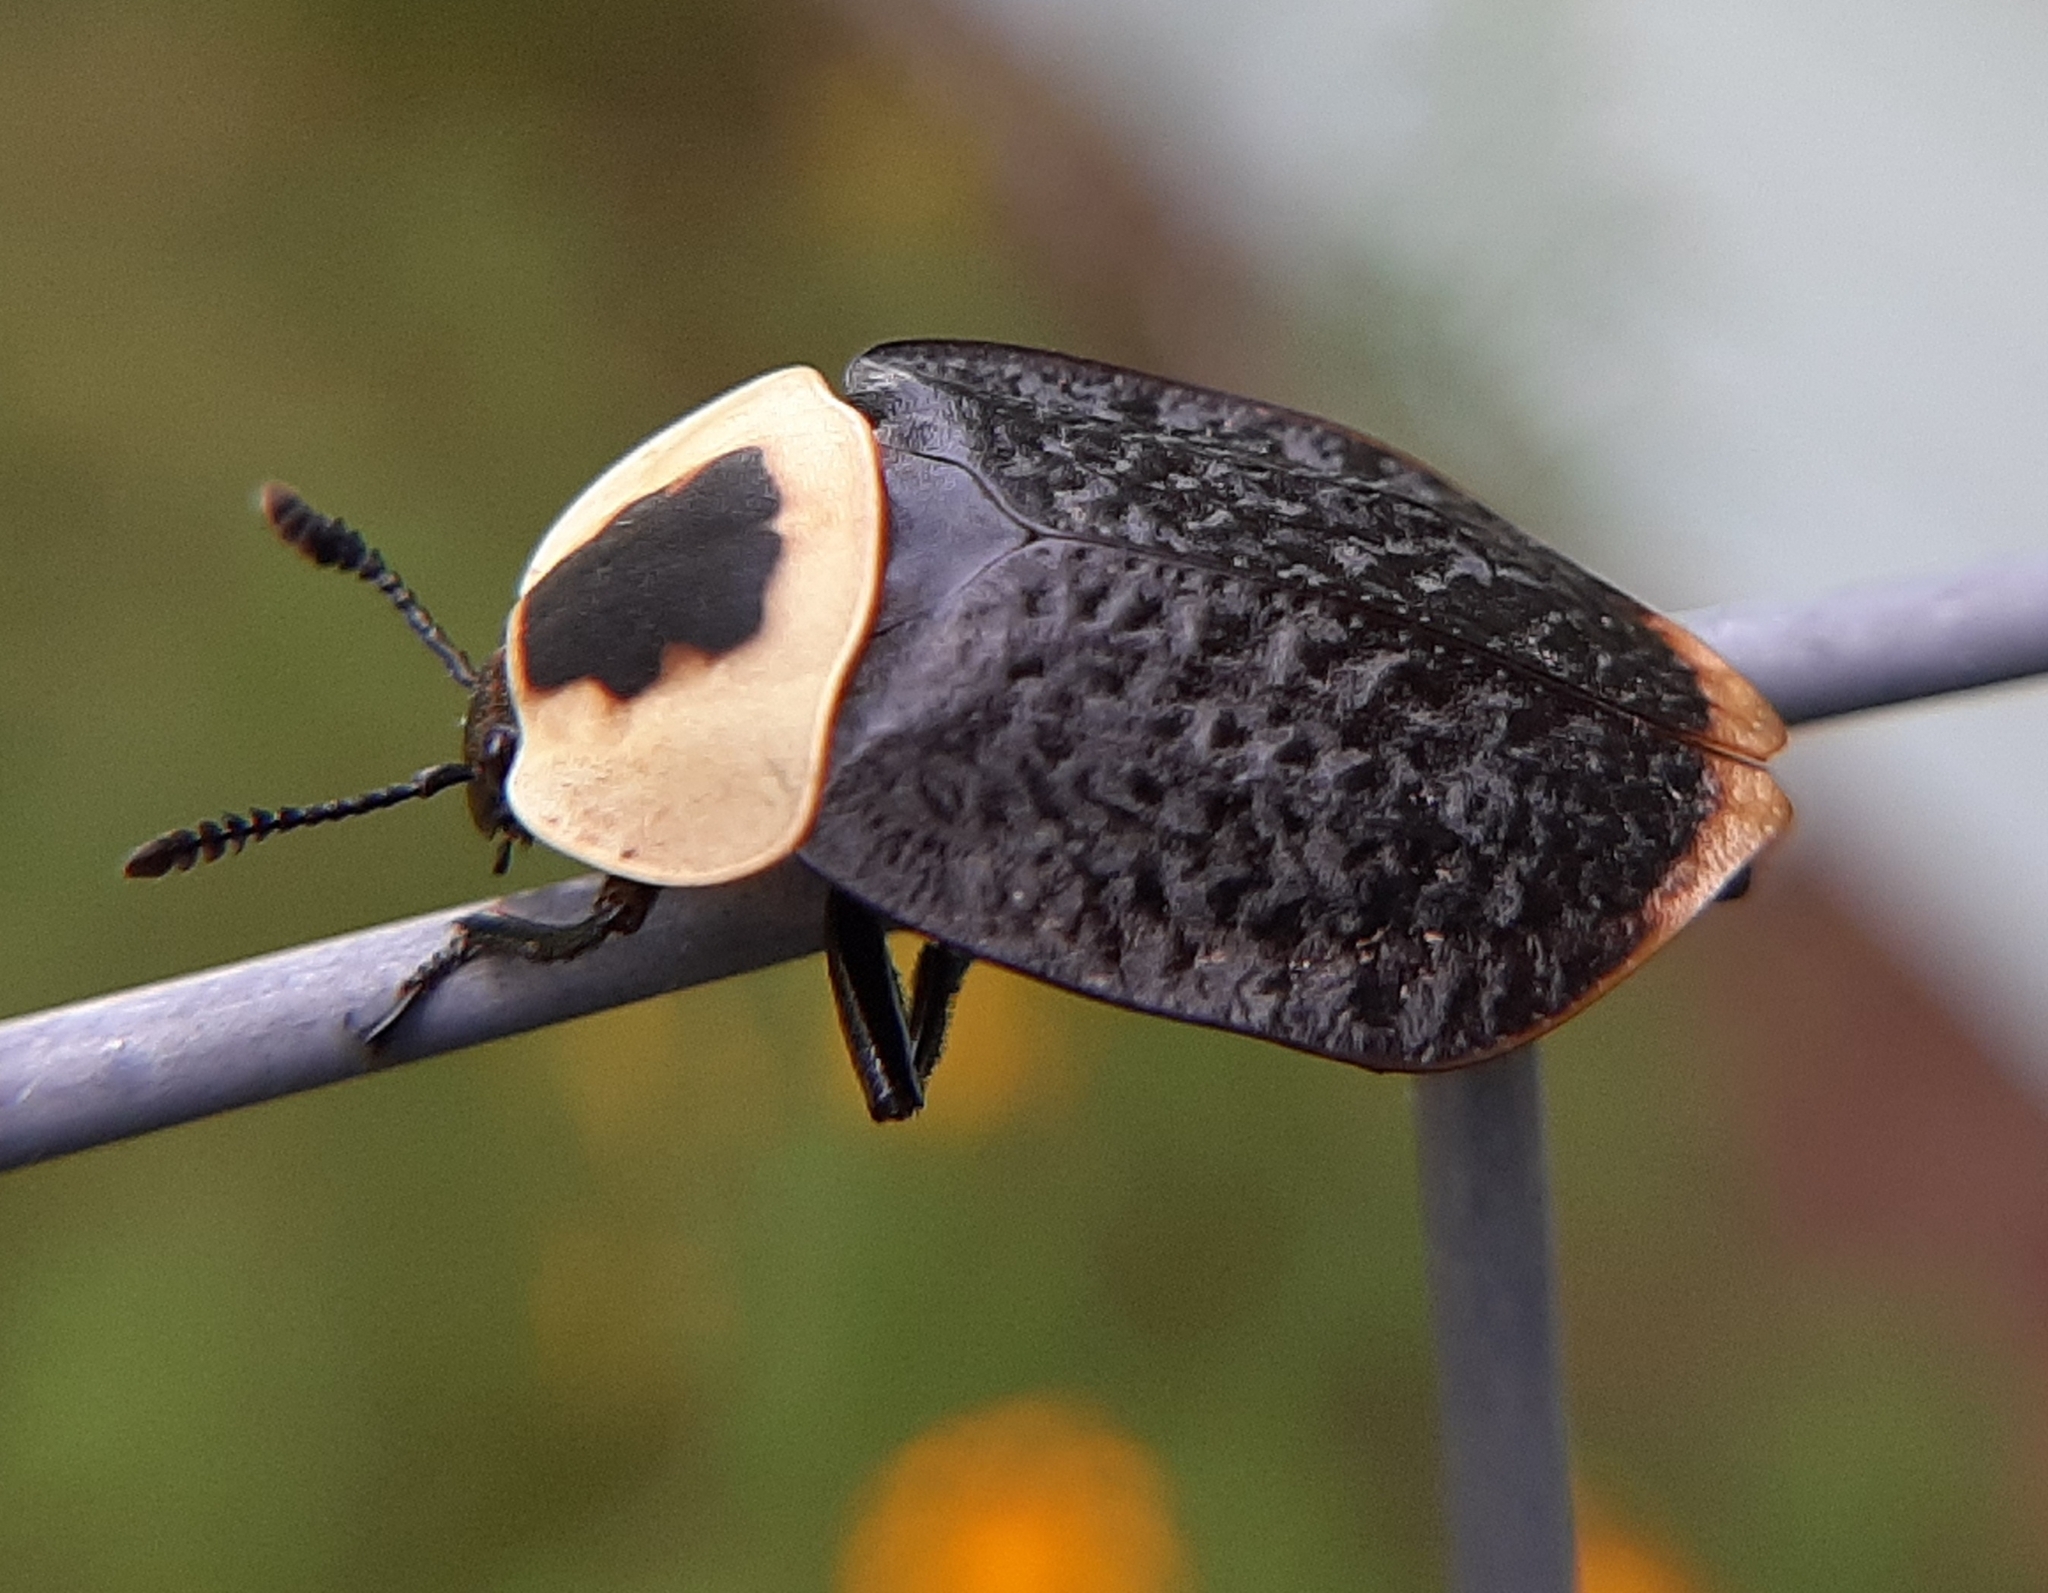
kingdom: Animalia
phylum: Arthropoda
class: Insecta
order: Coleoptera
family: Staphylinidae
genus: Necrophila
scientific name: Necrophila americana
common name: American carrion beetle
